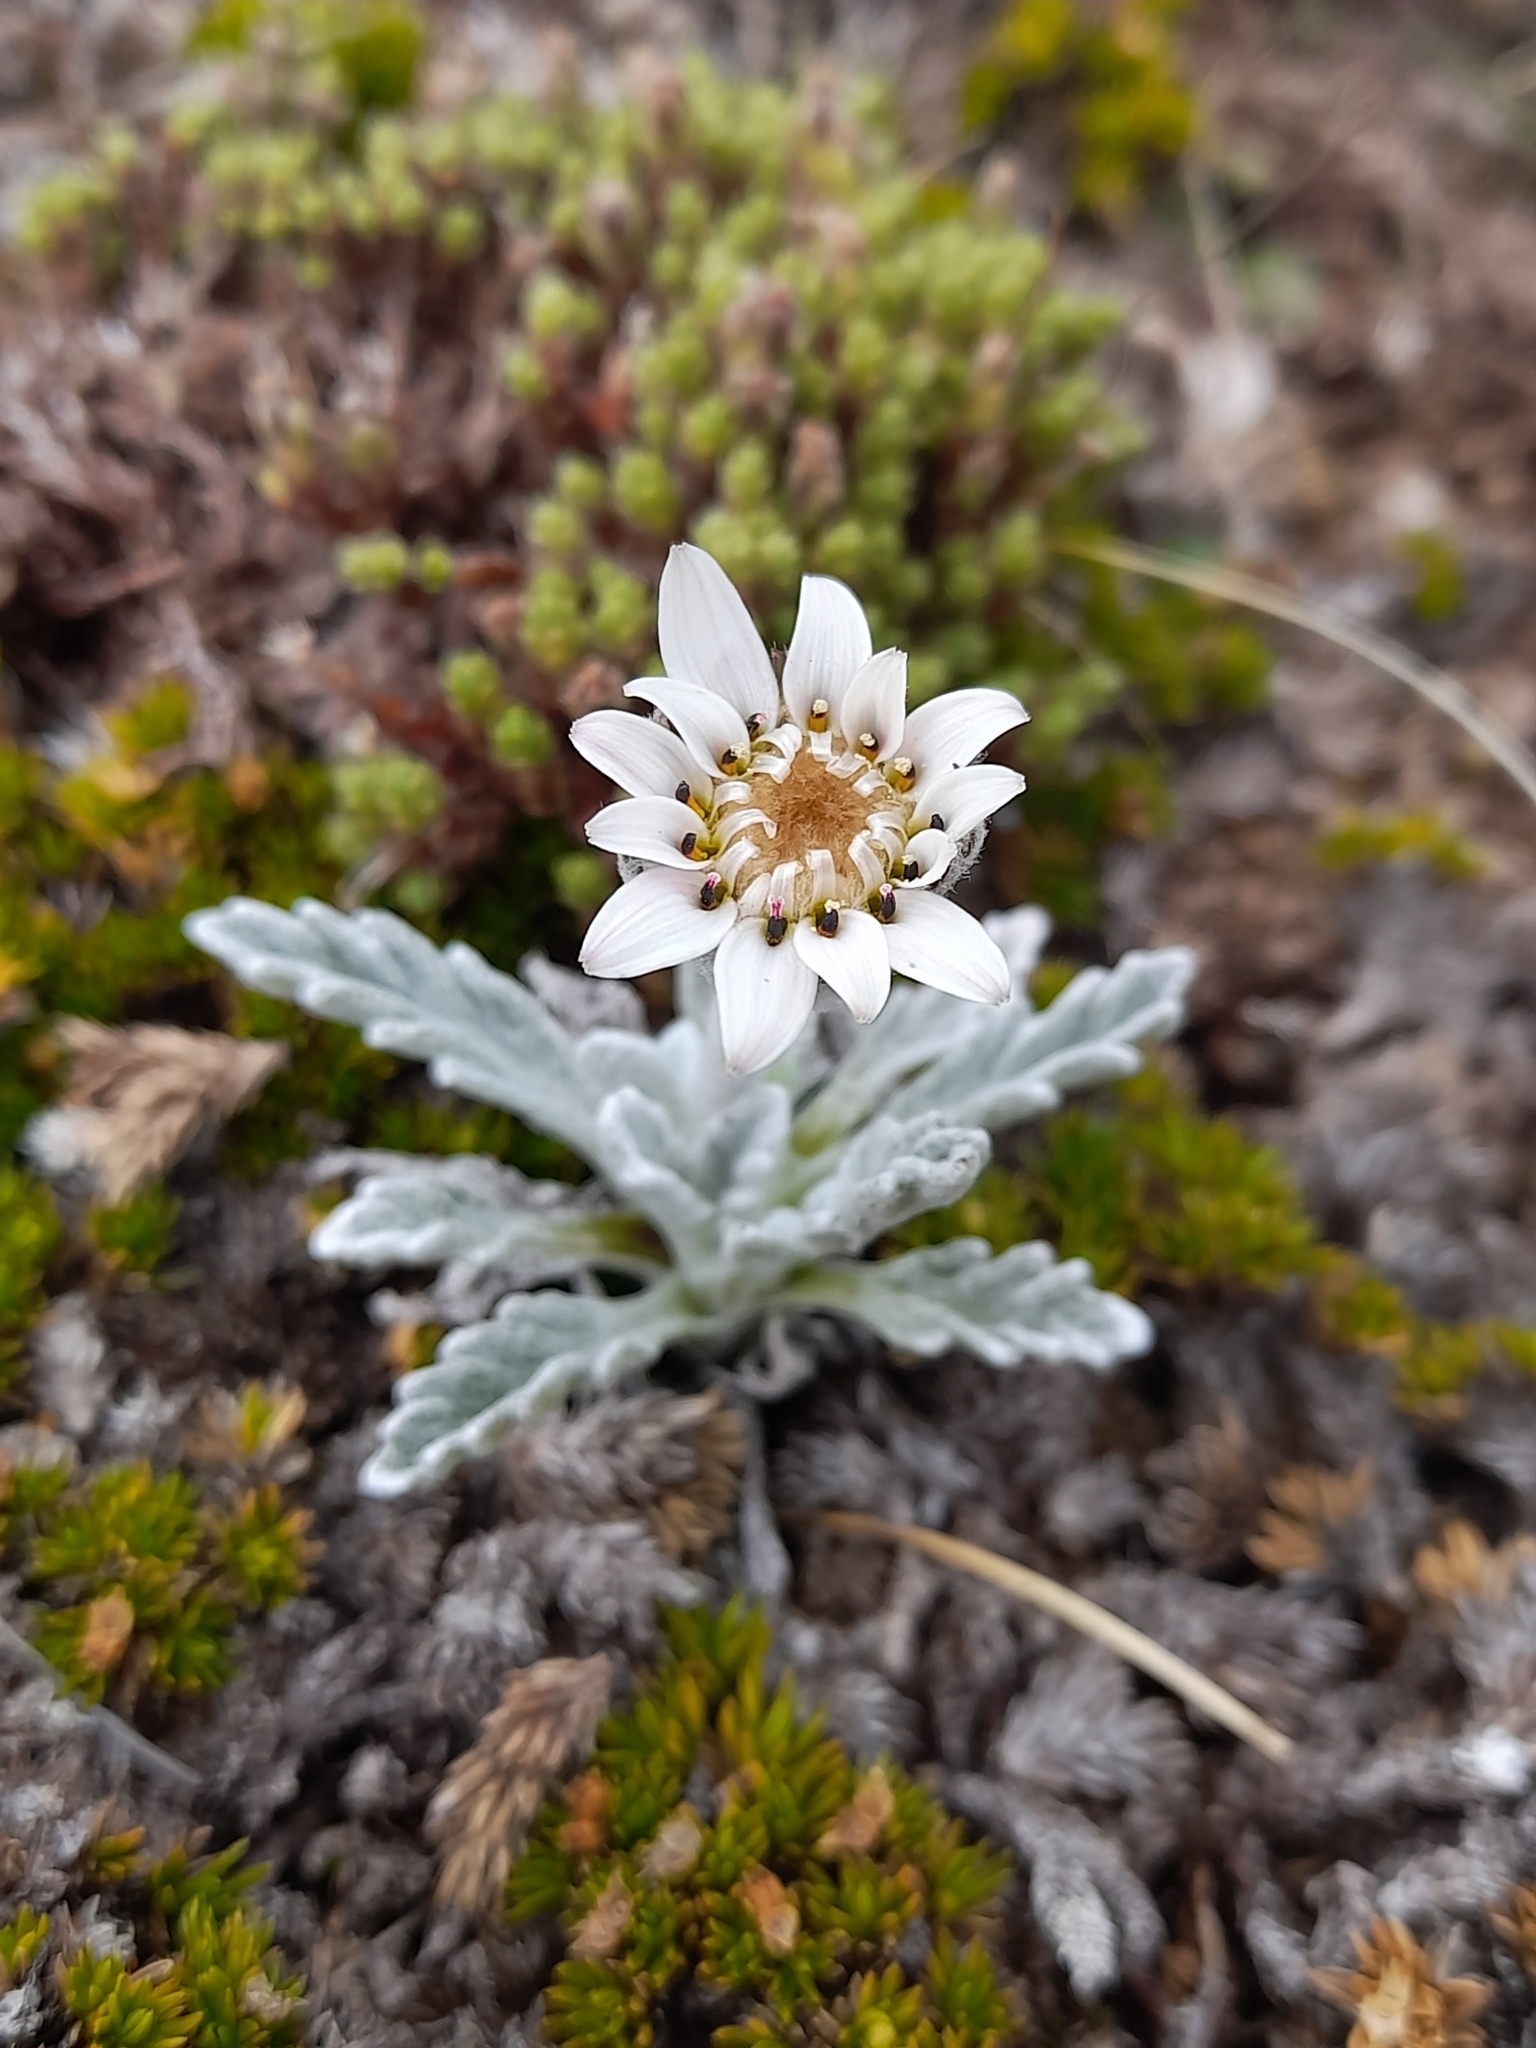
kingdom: Plantae
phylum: Tracheophyta
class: Magnoliopsida
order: Asterales
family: Asteraceae
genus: Leucheria
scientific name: Leucheria leontopodioides
